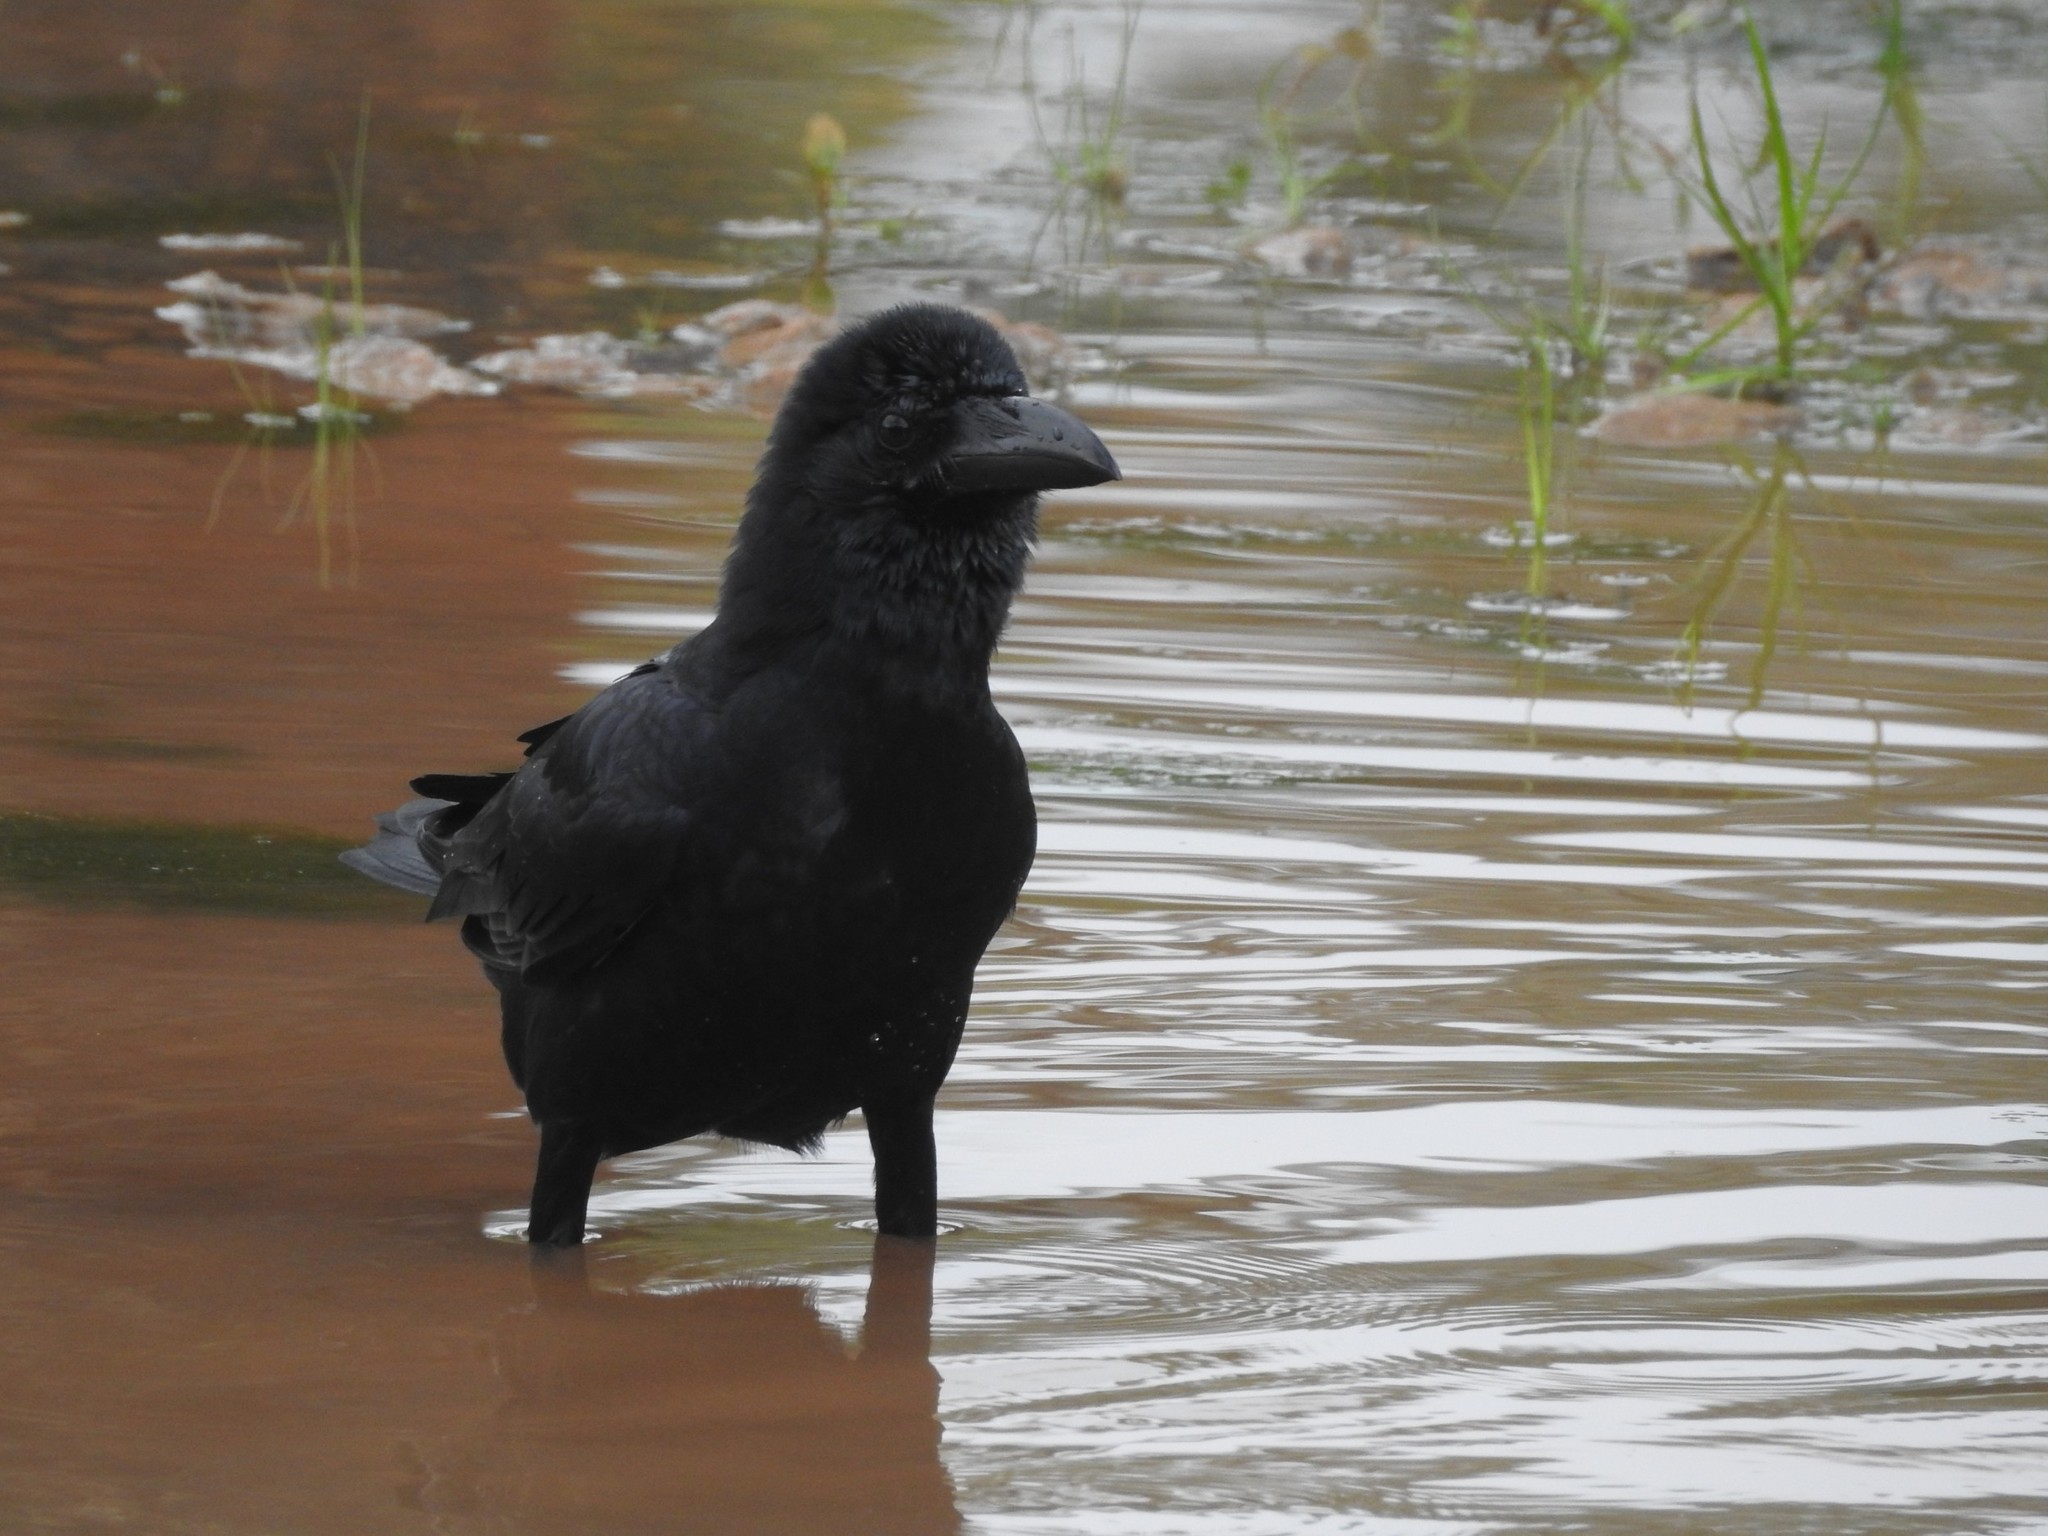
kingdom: Animalia
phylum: Chordata
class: Aves
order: Passeriformes
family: Corvidae
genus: Corvus
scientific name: Corvus macrorhynchos
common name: Large-billed crow
